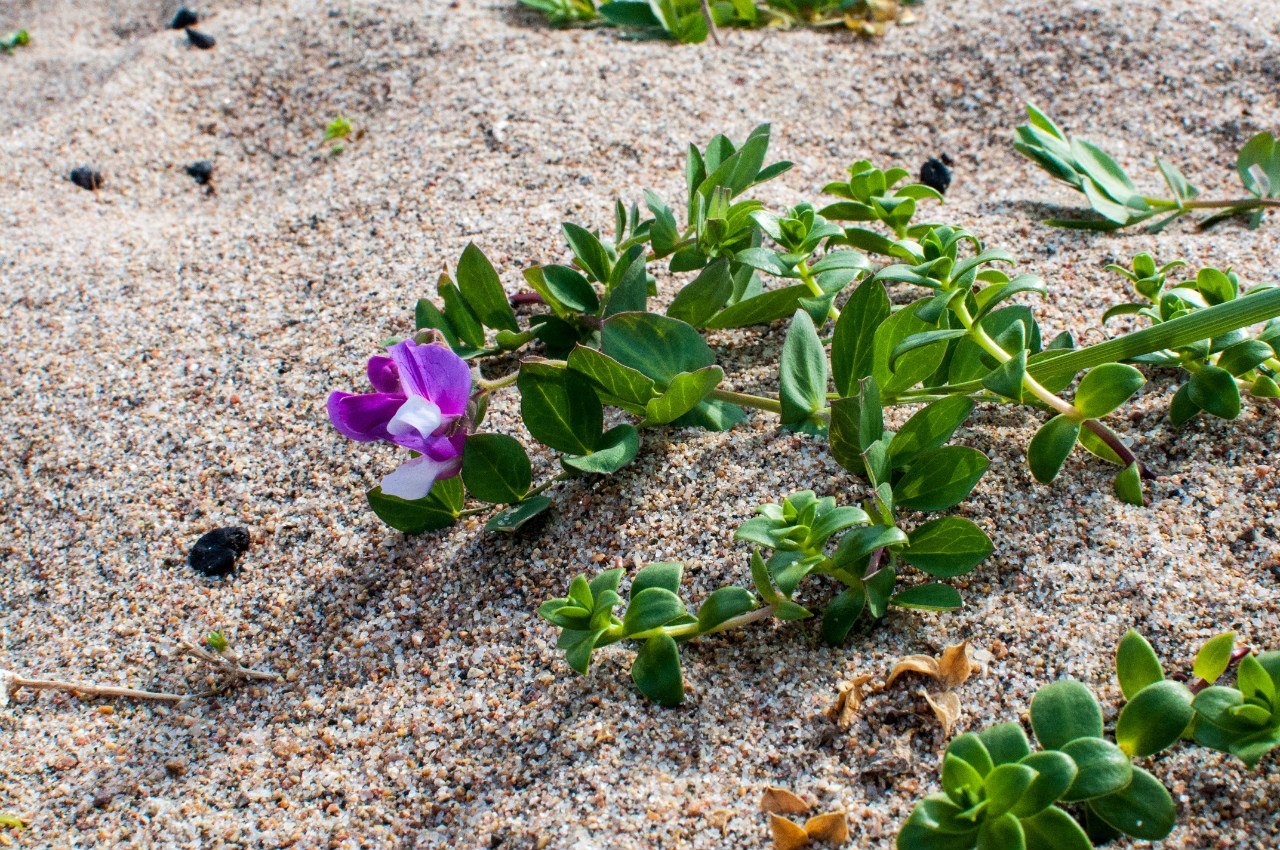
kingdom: Plantae
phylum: Tracheophyta
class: Magnoliopsida
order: Fabales
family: Fabaceae
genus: Lathyrus
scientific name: Lathyrus japonicus
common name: Sea pea
